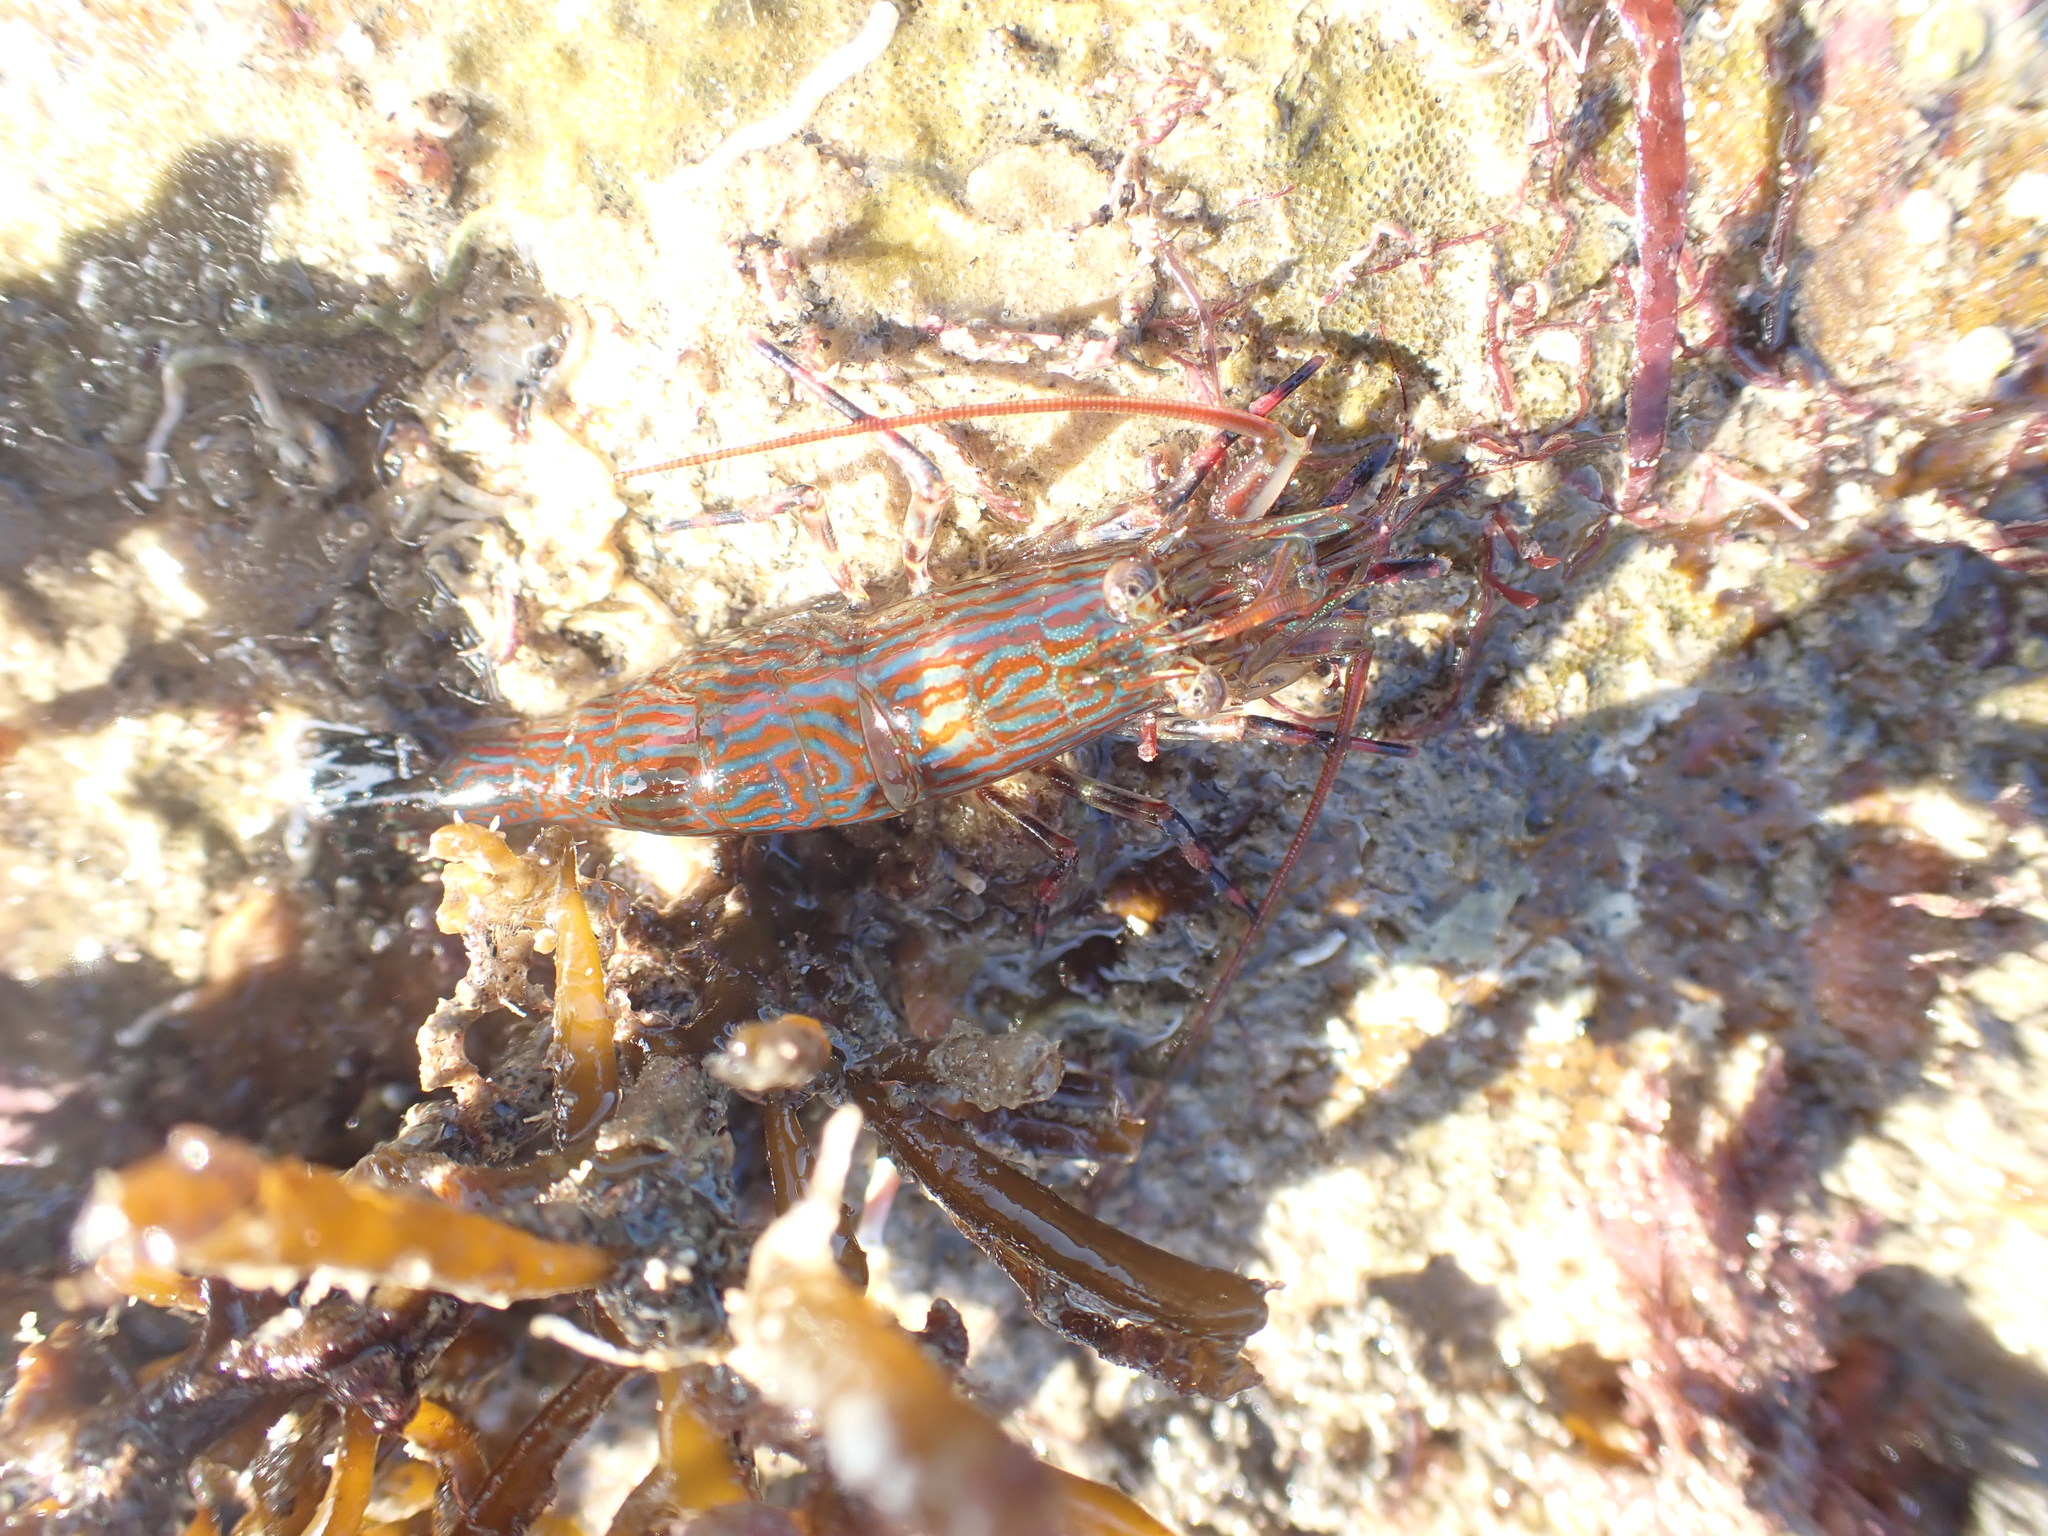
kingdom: Animalia
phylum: Arthropoda
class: Malacostraca
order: Decapoda
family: Hippolytidae
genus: Alope
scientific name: Alope spinifrons
